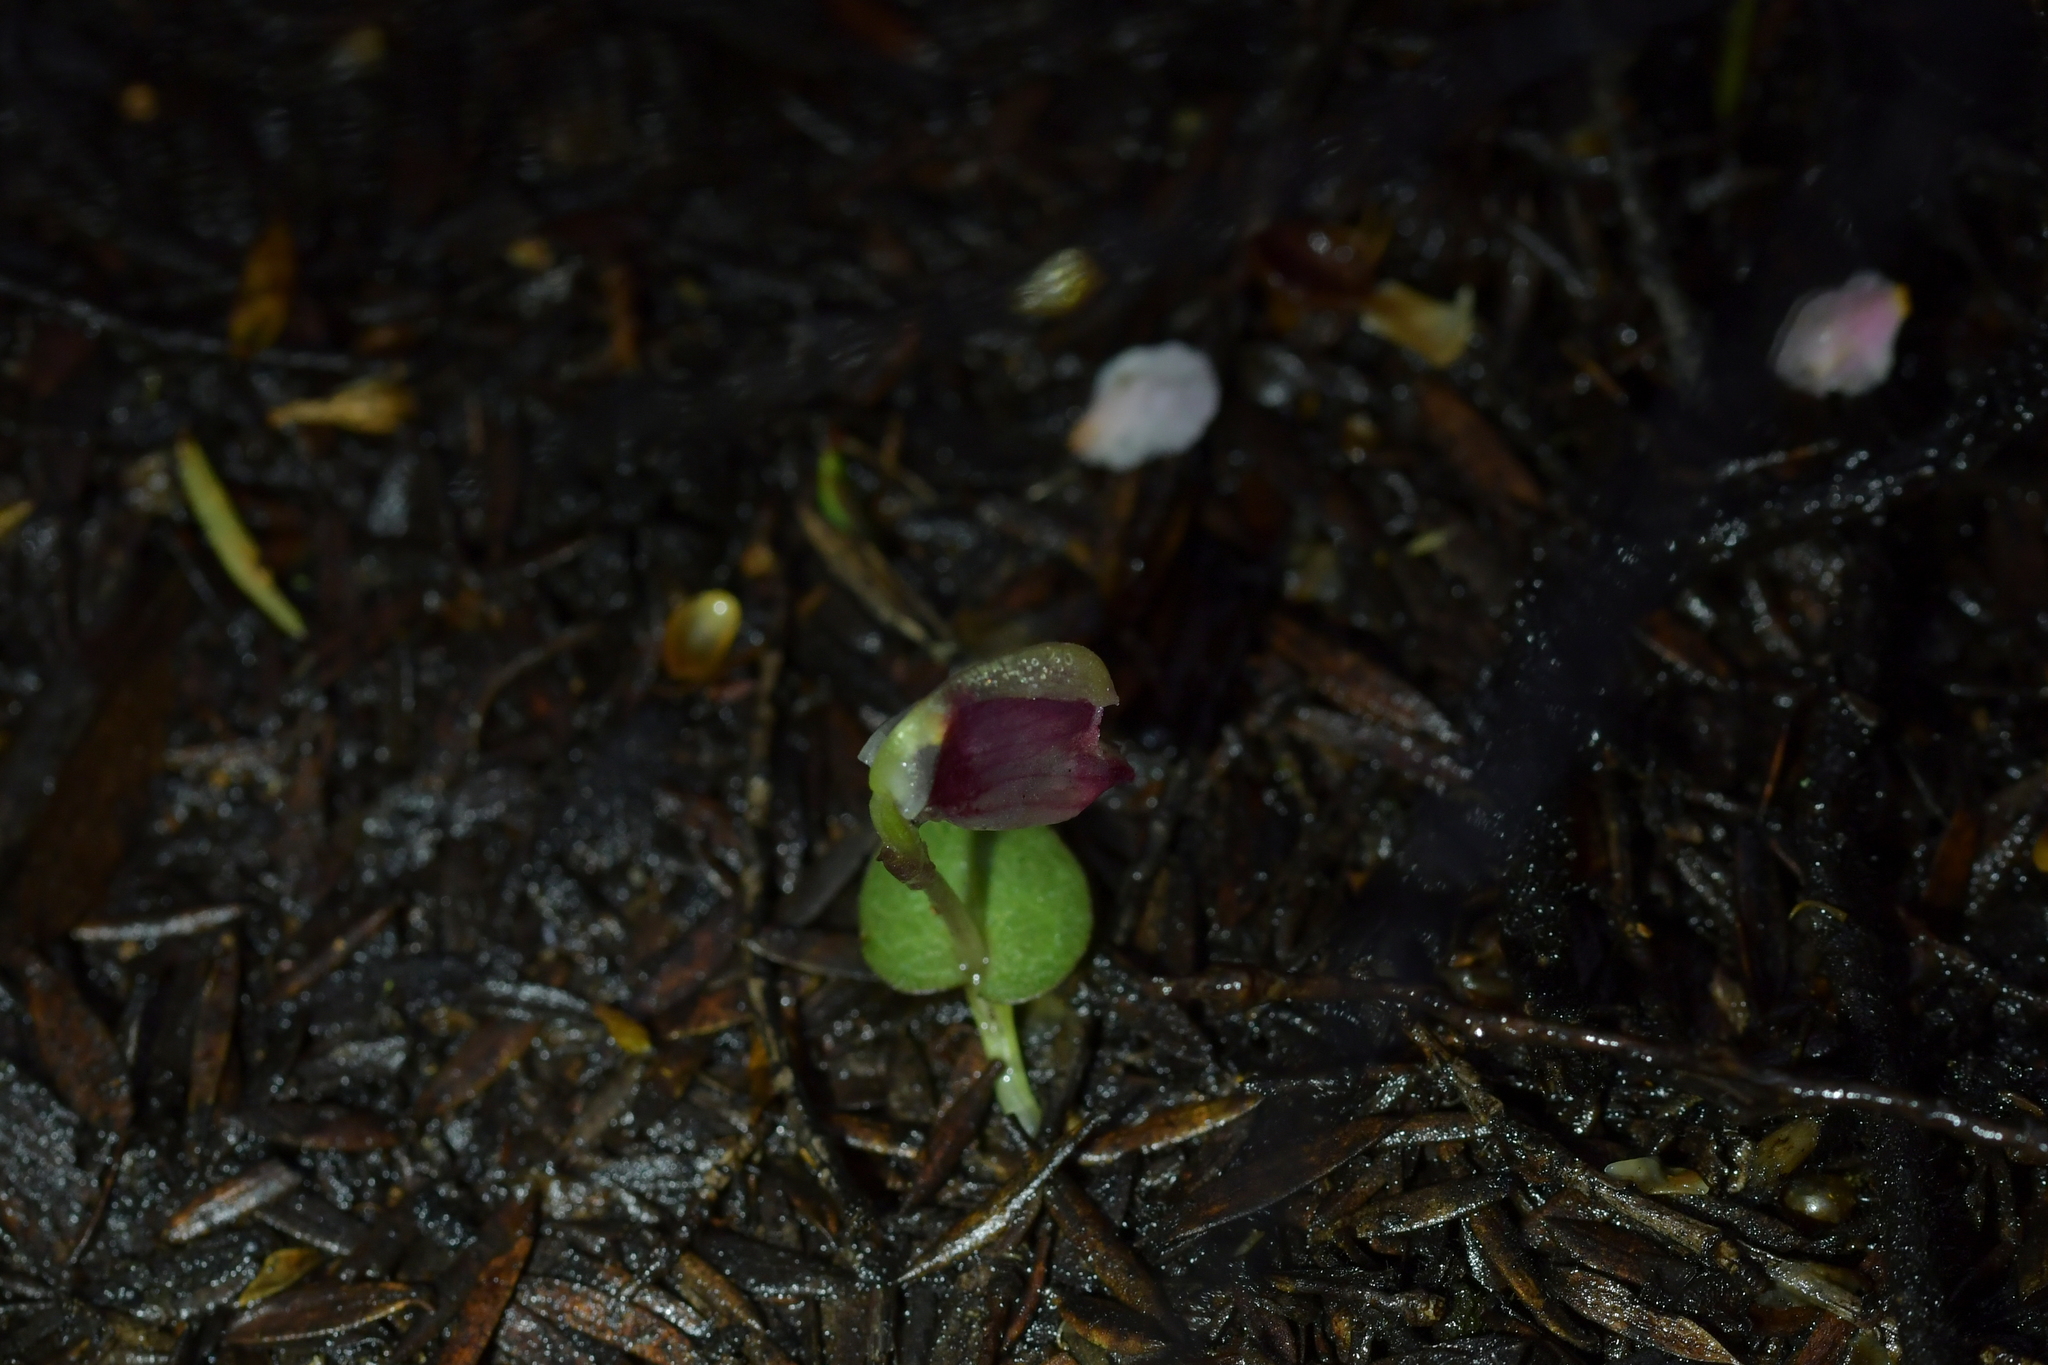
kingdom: Plantae
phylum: Tracheophyta
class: Liliopsida
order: Asparagales
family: Orchidaceae
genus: Corybas
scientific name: Corybas rotundifolius
